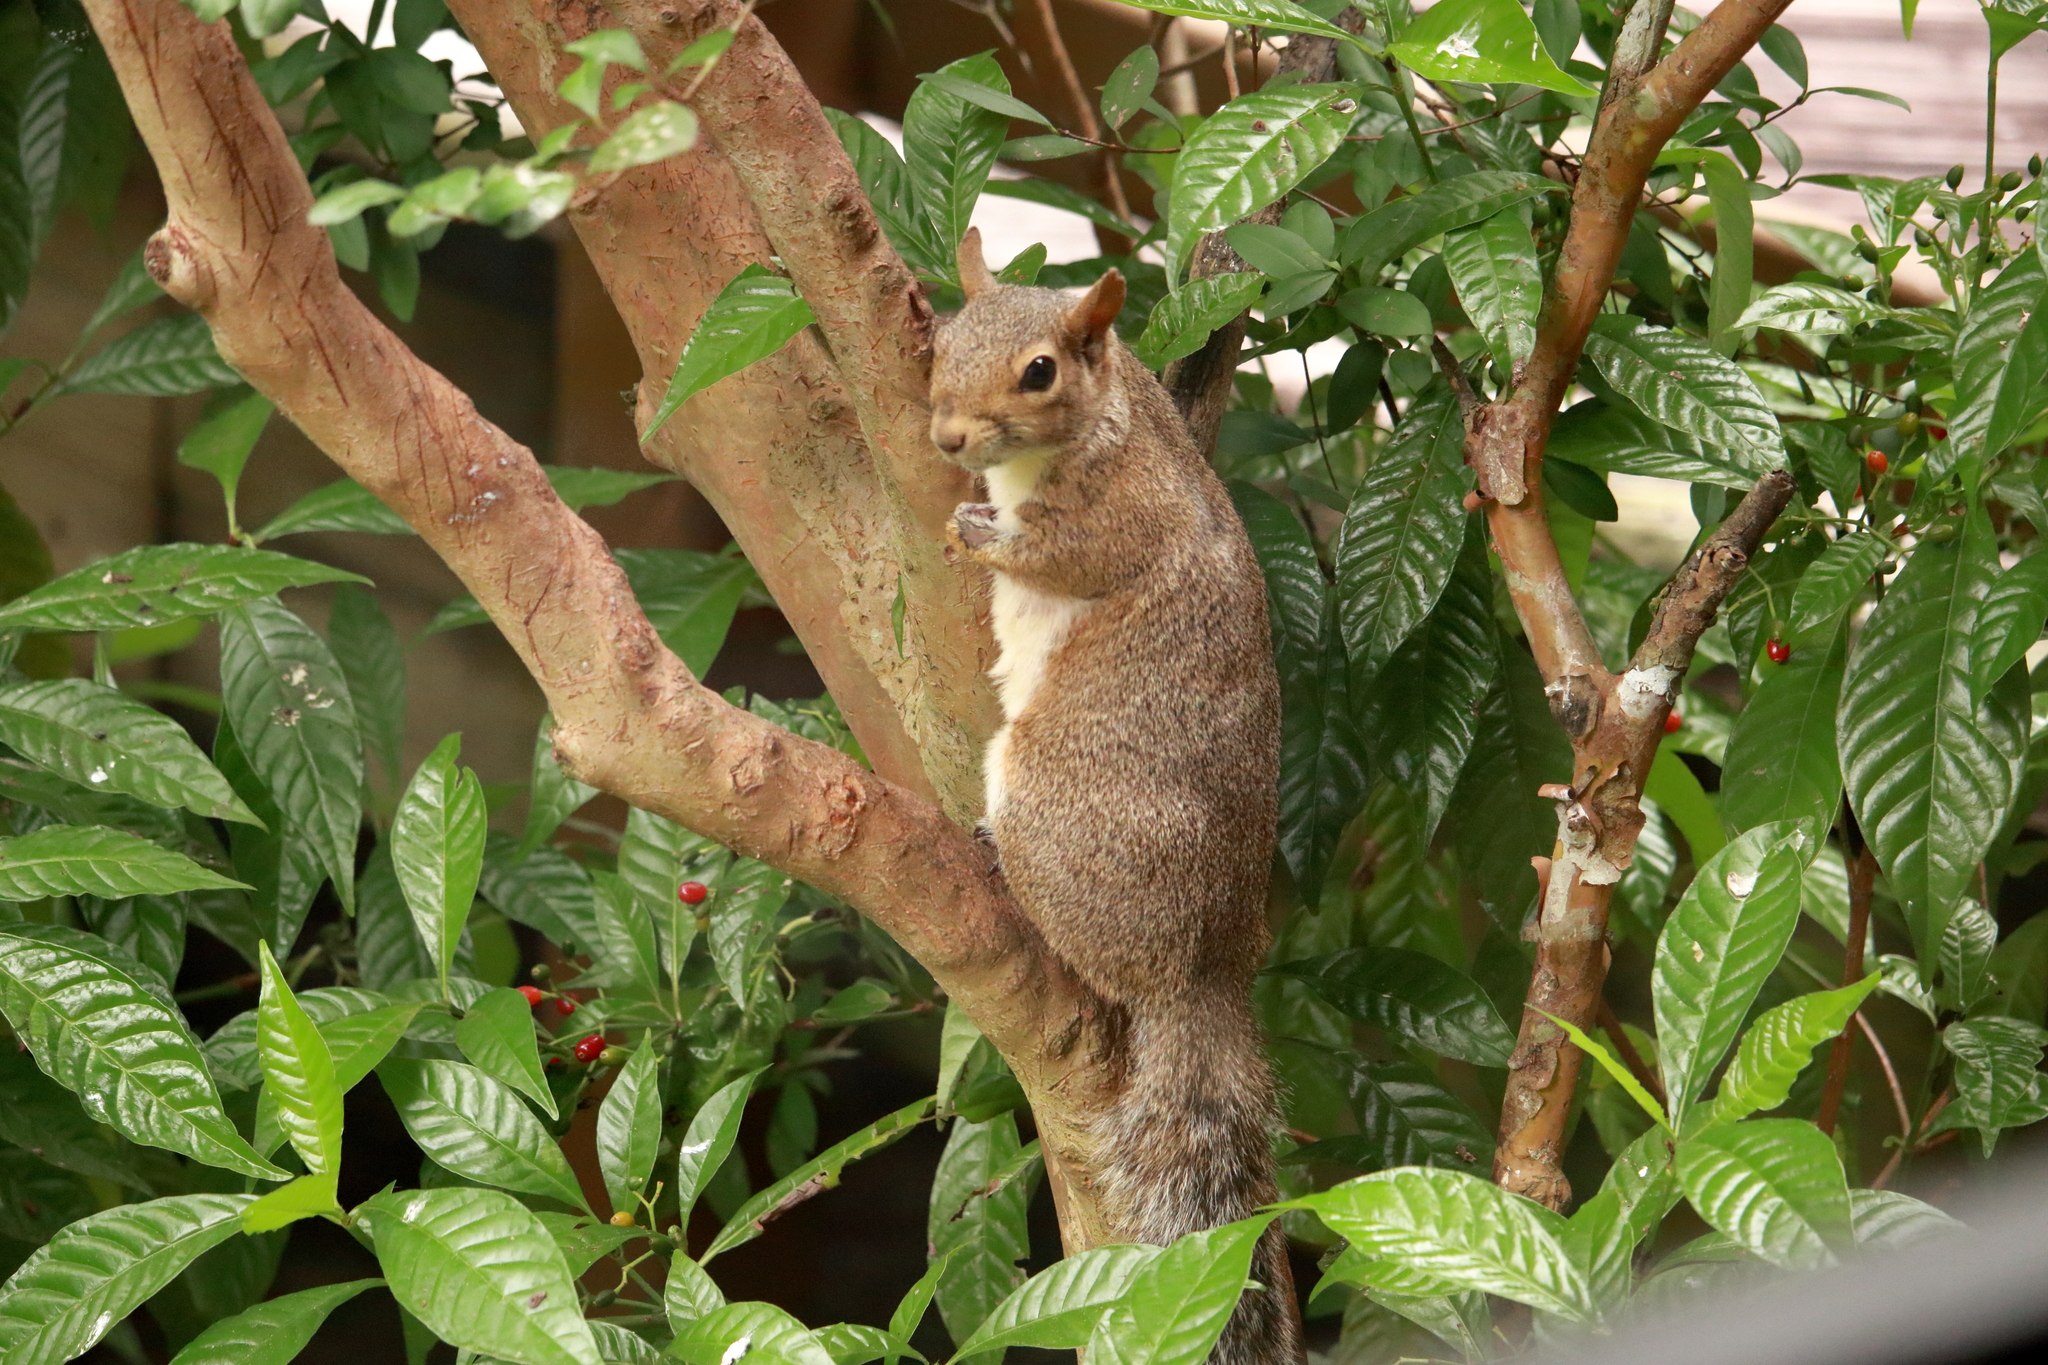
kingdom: Animalia
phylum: Chordata
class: Mammalia
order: Rodentia
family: Sciuridae
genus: Sciurus
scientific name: Sciurus carolinensis
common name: Eastern gray squirrel
